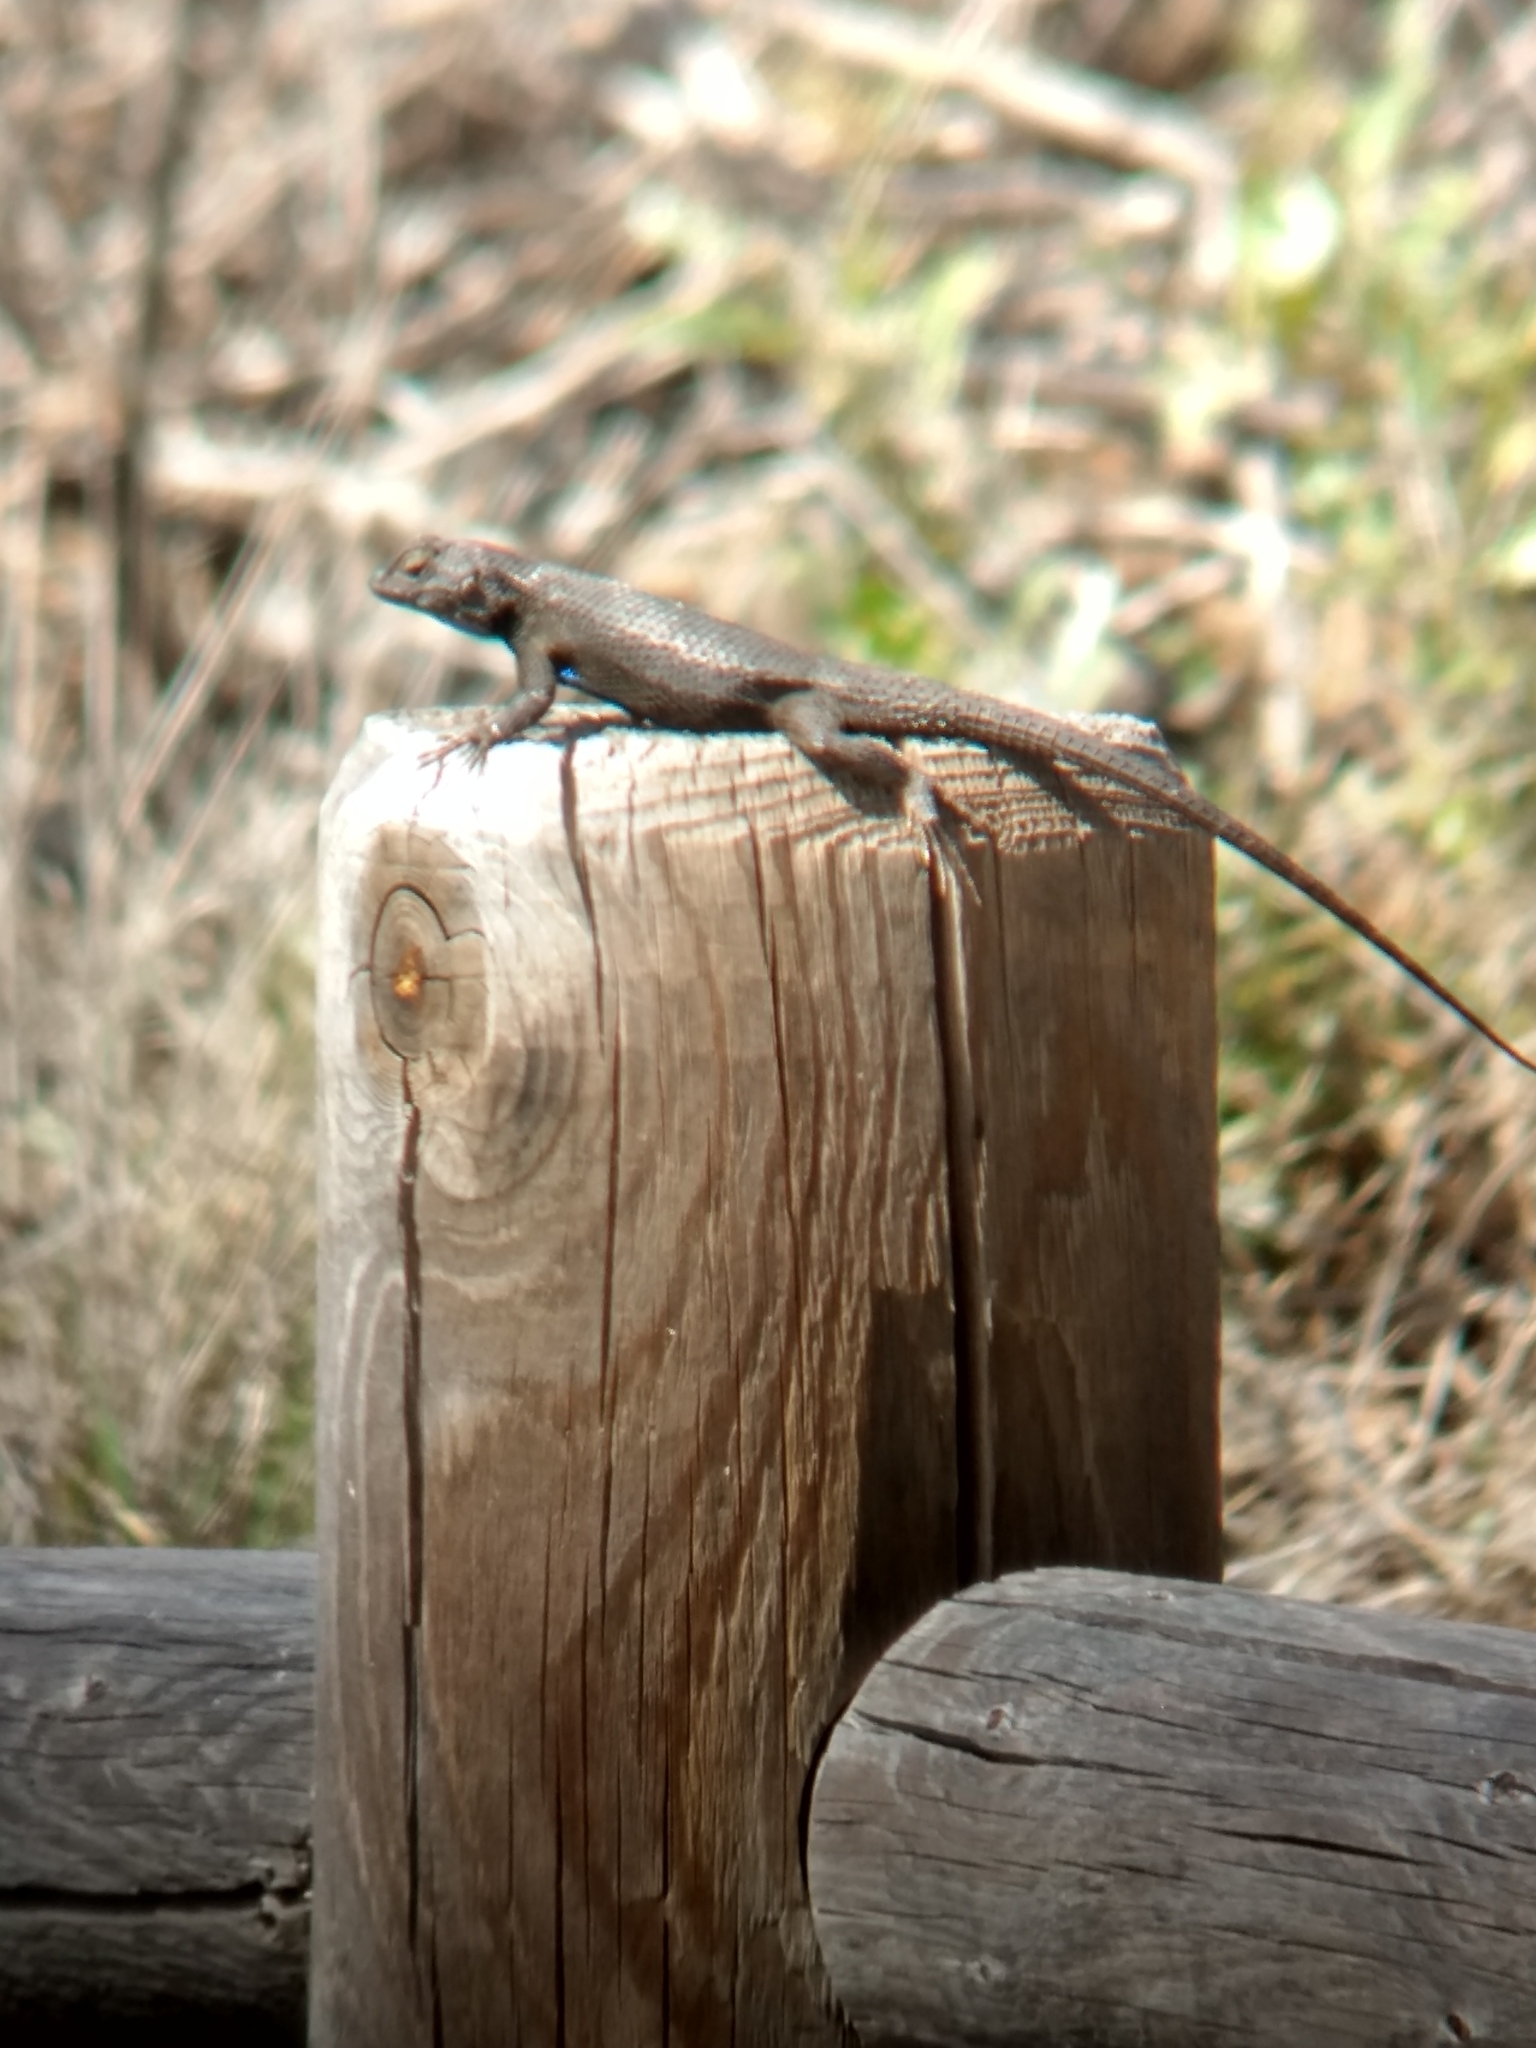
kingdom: Animalia
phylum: Chordata
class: Squamata
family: Phrynosomatidae
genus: Sceloporus
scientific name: Sceloporus occidentalis
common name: Western fence lizard
